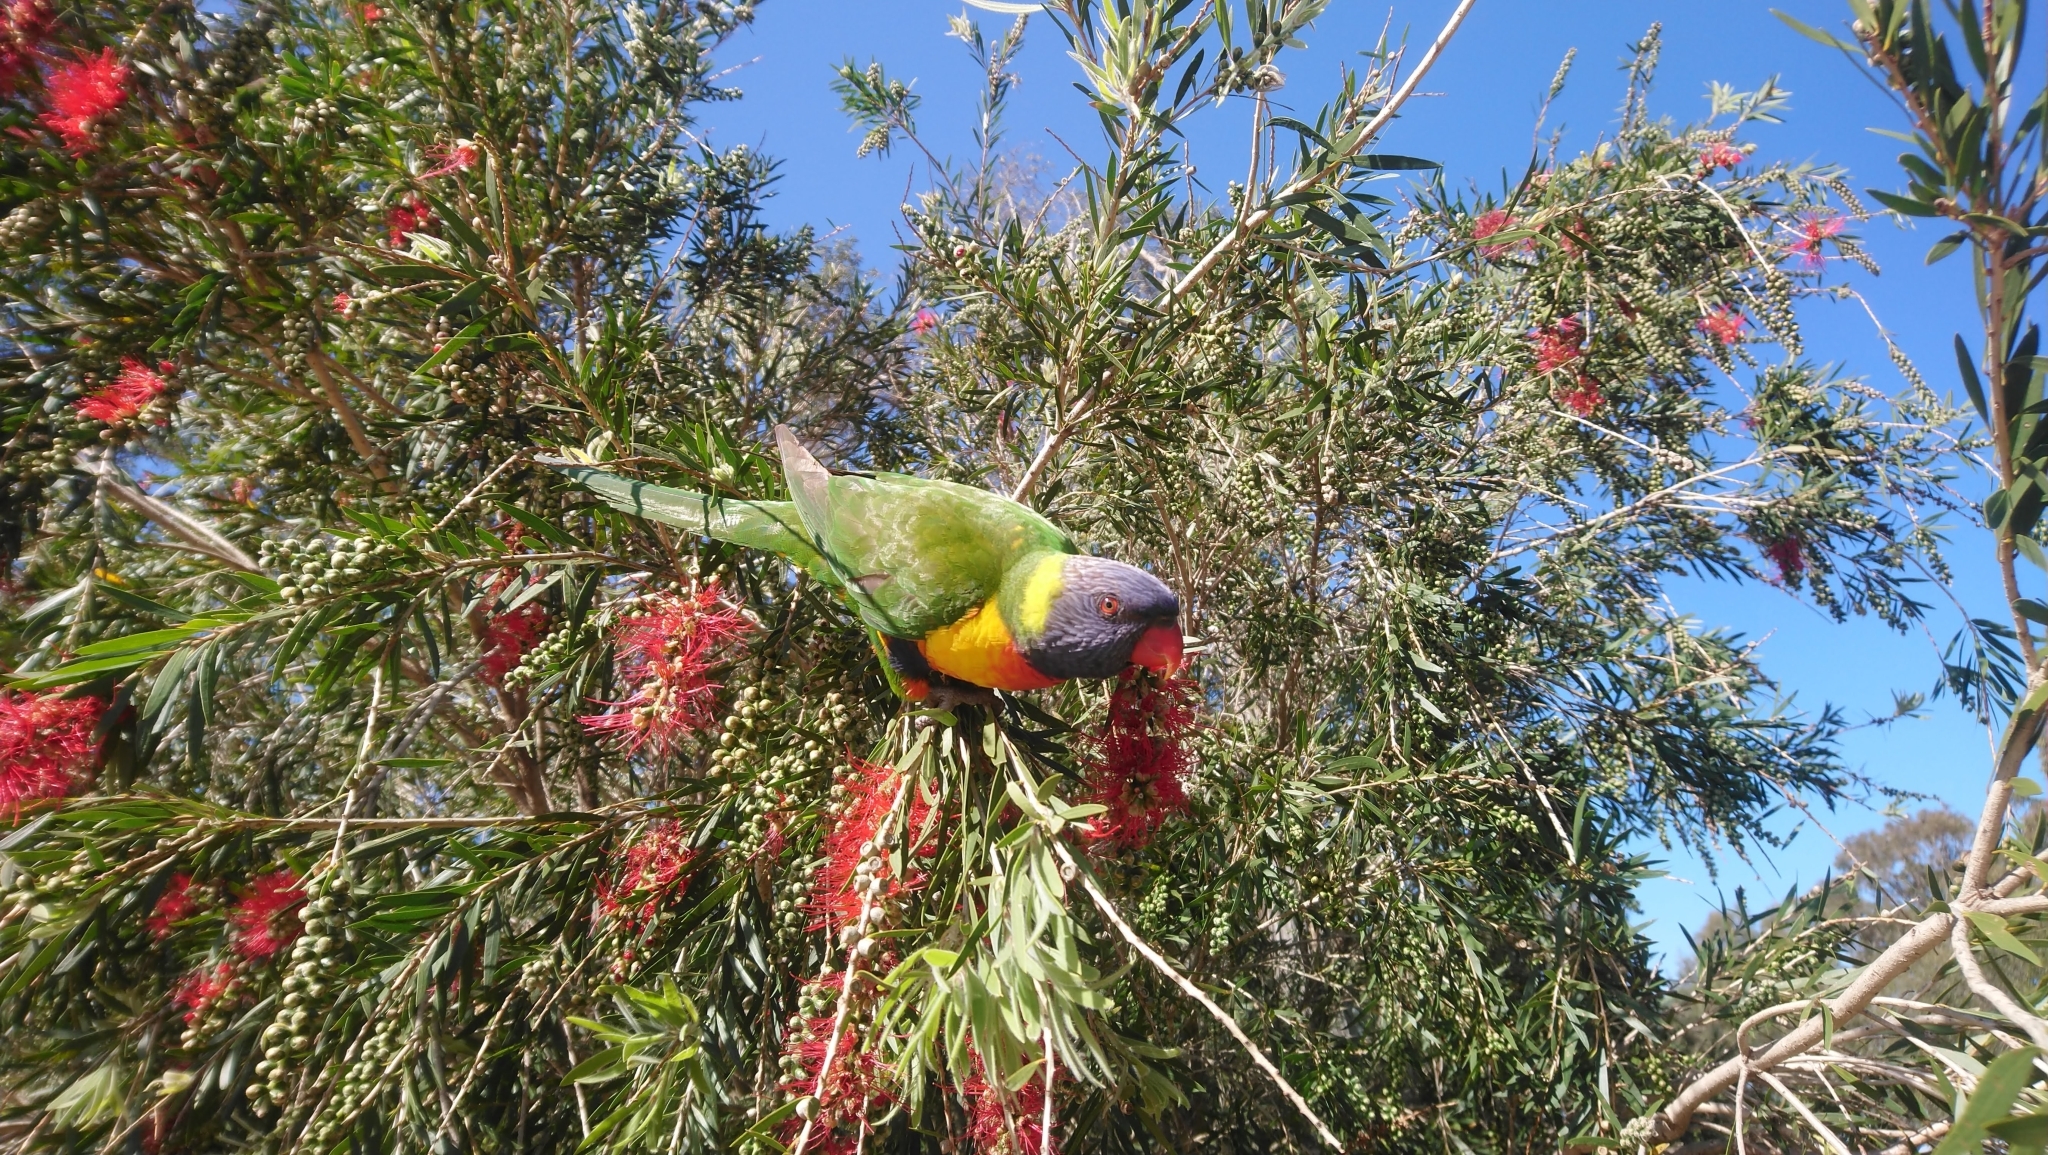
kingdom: Animalia
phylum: Chordata
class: Aves
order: Psittaciformes
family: Psittacidae
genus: Trichoglossus
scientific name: Trichoglossus haematodus
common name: Coconut lorikeet
